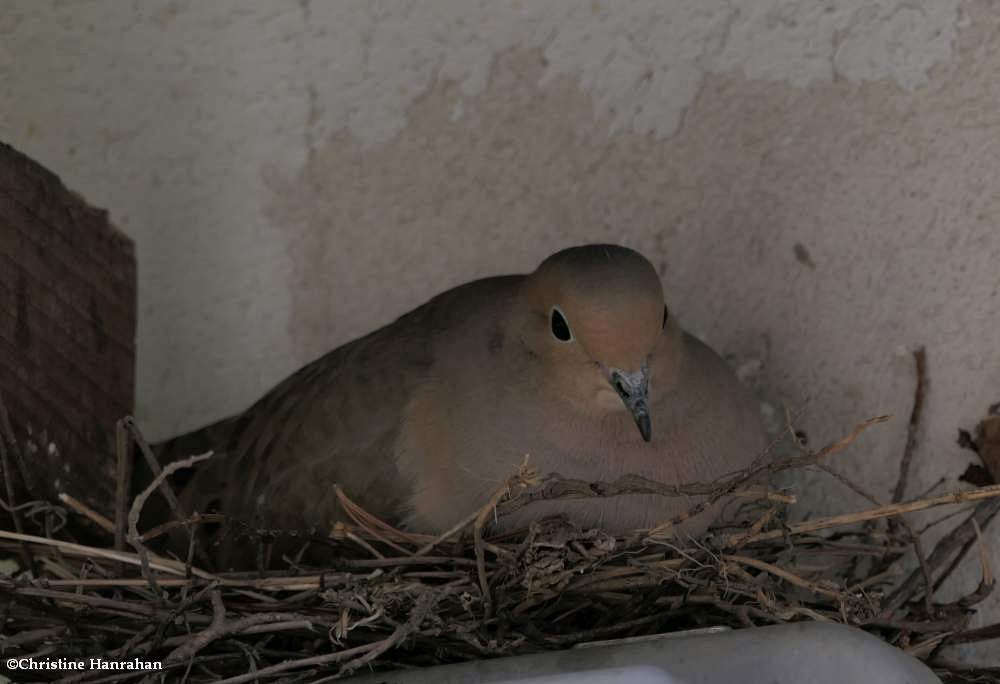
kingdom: Animalia
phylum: Chordata
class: Aves
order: Columbiformes
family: Columbidae
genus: Zenaida
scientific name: Zenaida macroura
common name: Mourning dove
